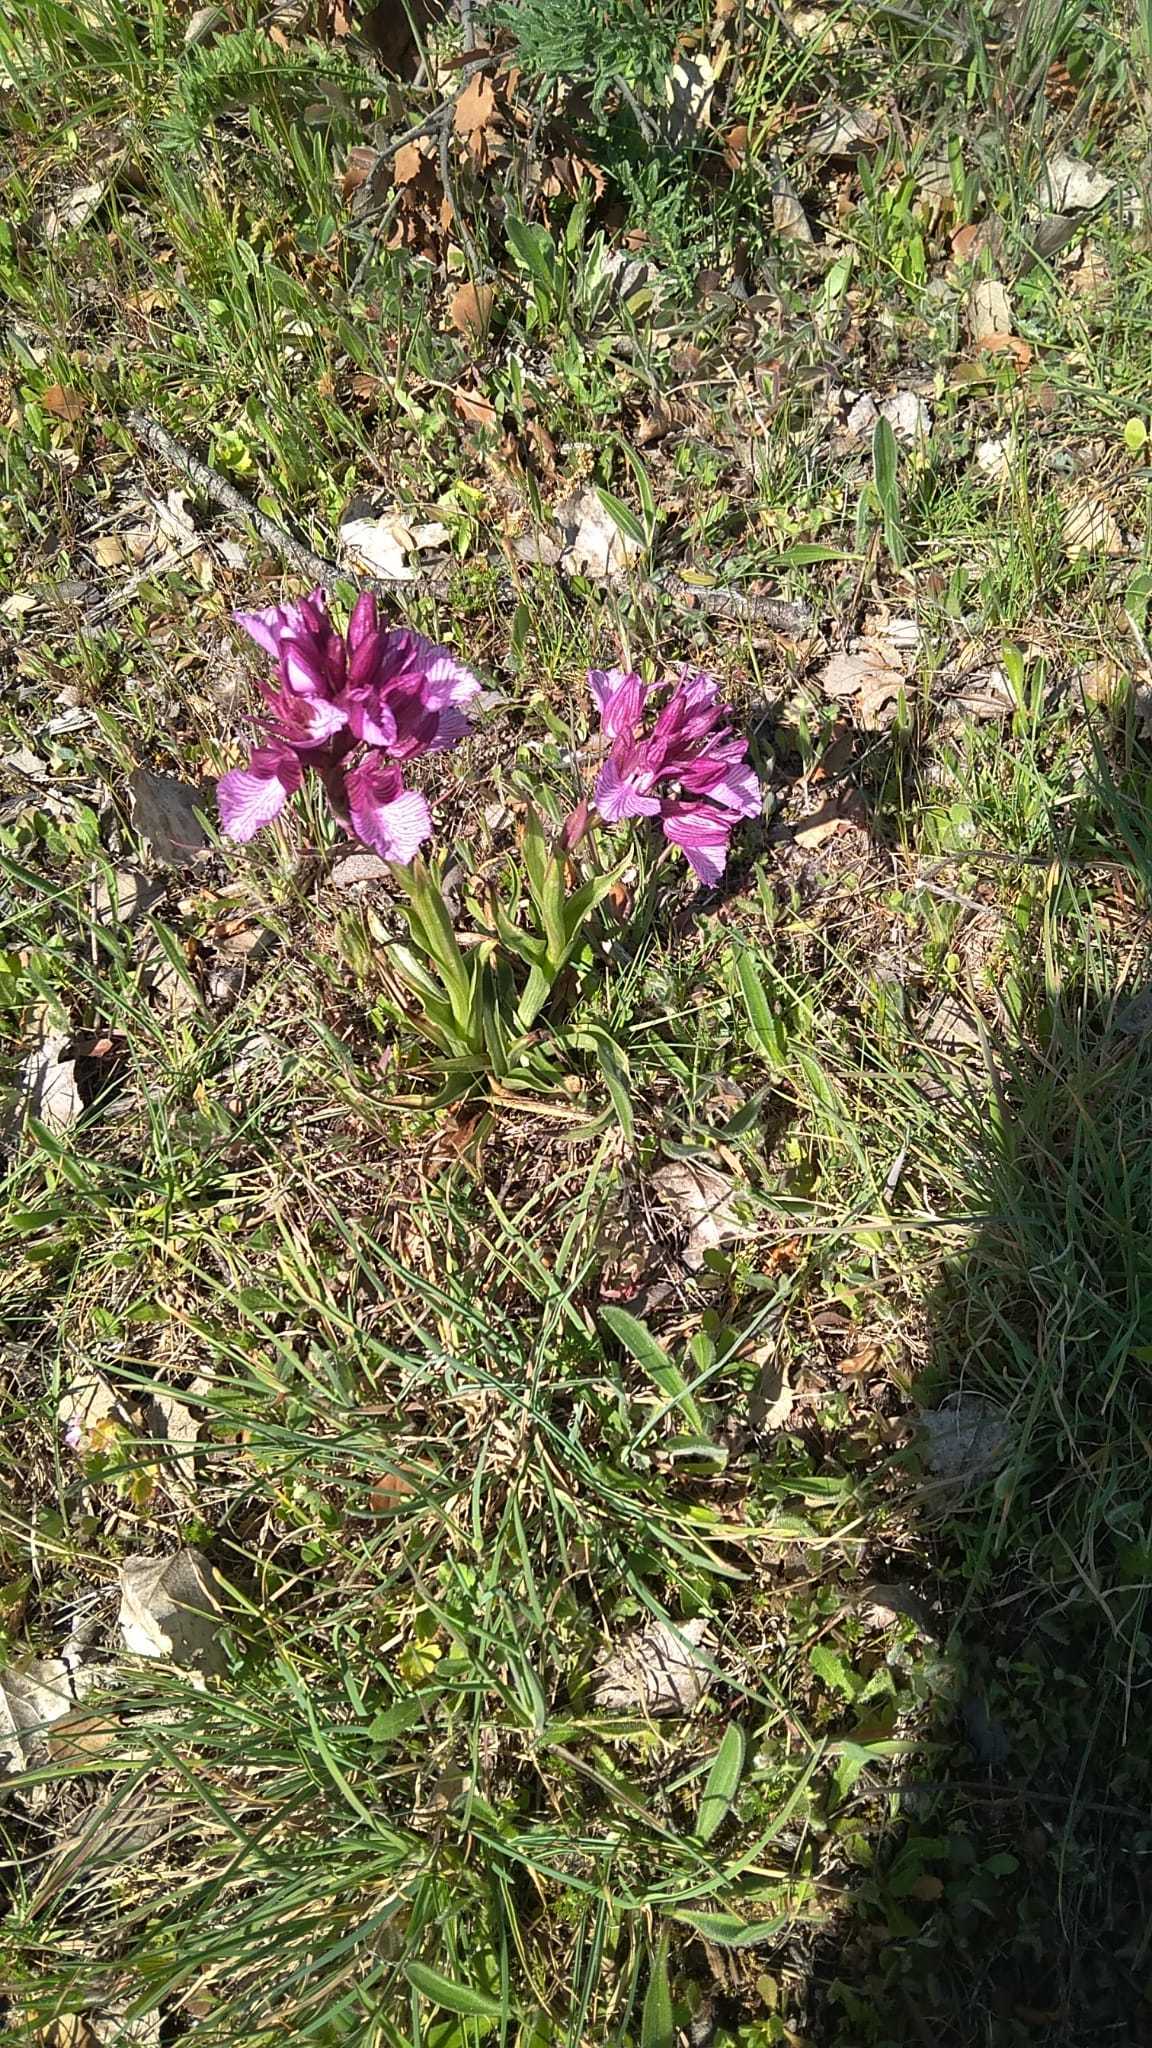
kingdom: Plantae
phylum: Tracheophyta
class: Liliopsida
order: Asparagales
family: Orchidaceae
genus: Anacamptis
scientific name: Anacamptis papilionacea
